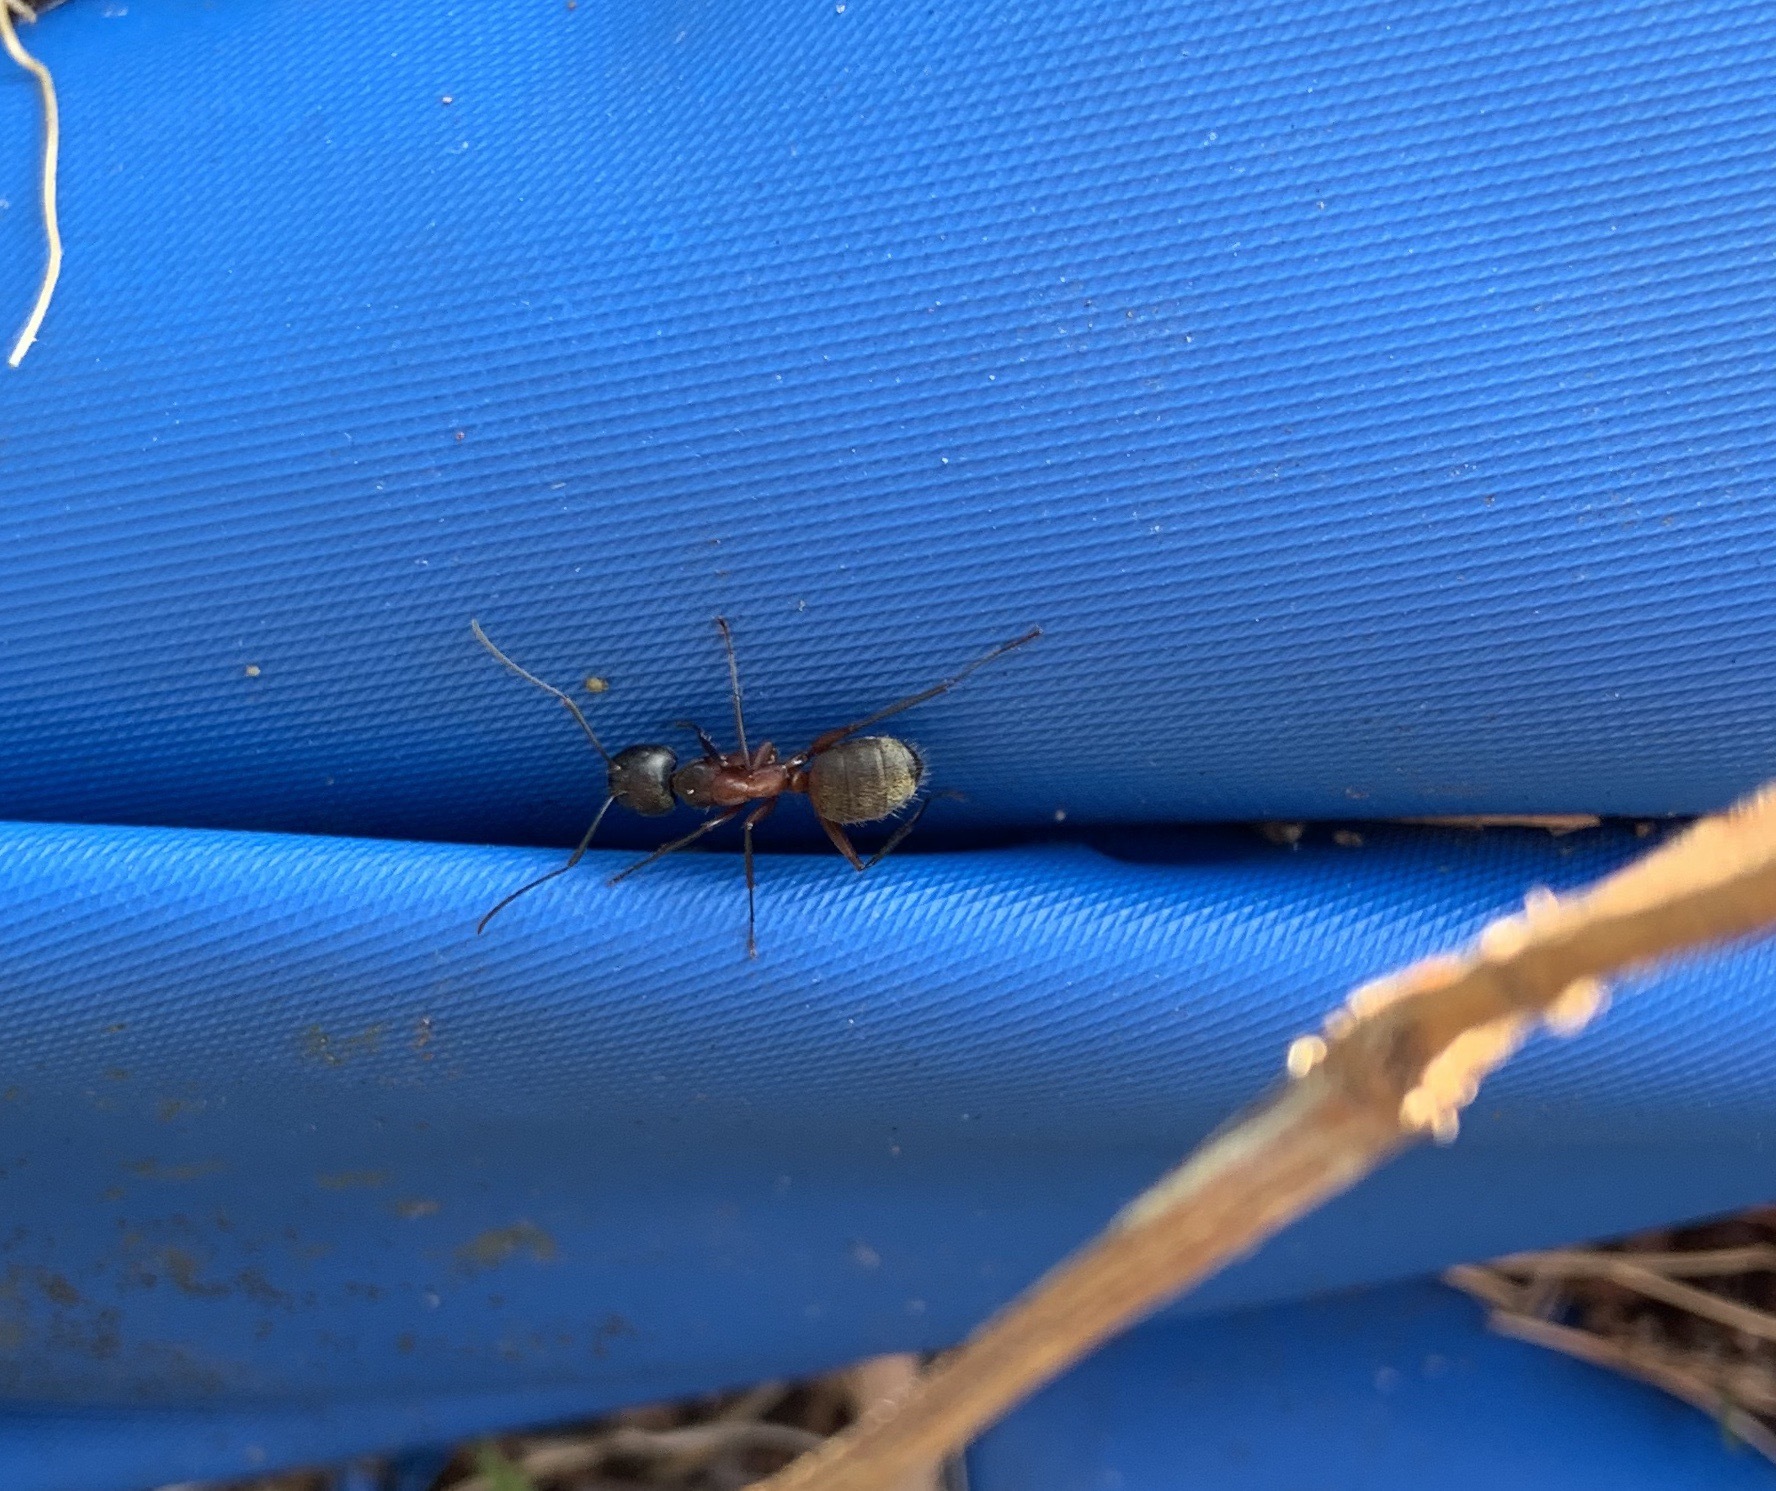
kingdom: Animalia
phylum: Arthropoda
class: Insecta
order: Hymenoptera
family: Formicidae
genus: Camponotus
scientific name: Camponotus chromaiodes
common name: Red carpenter ant
